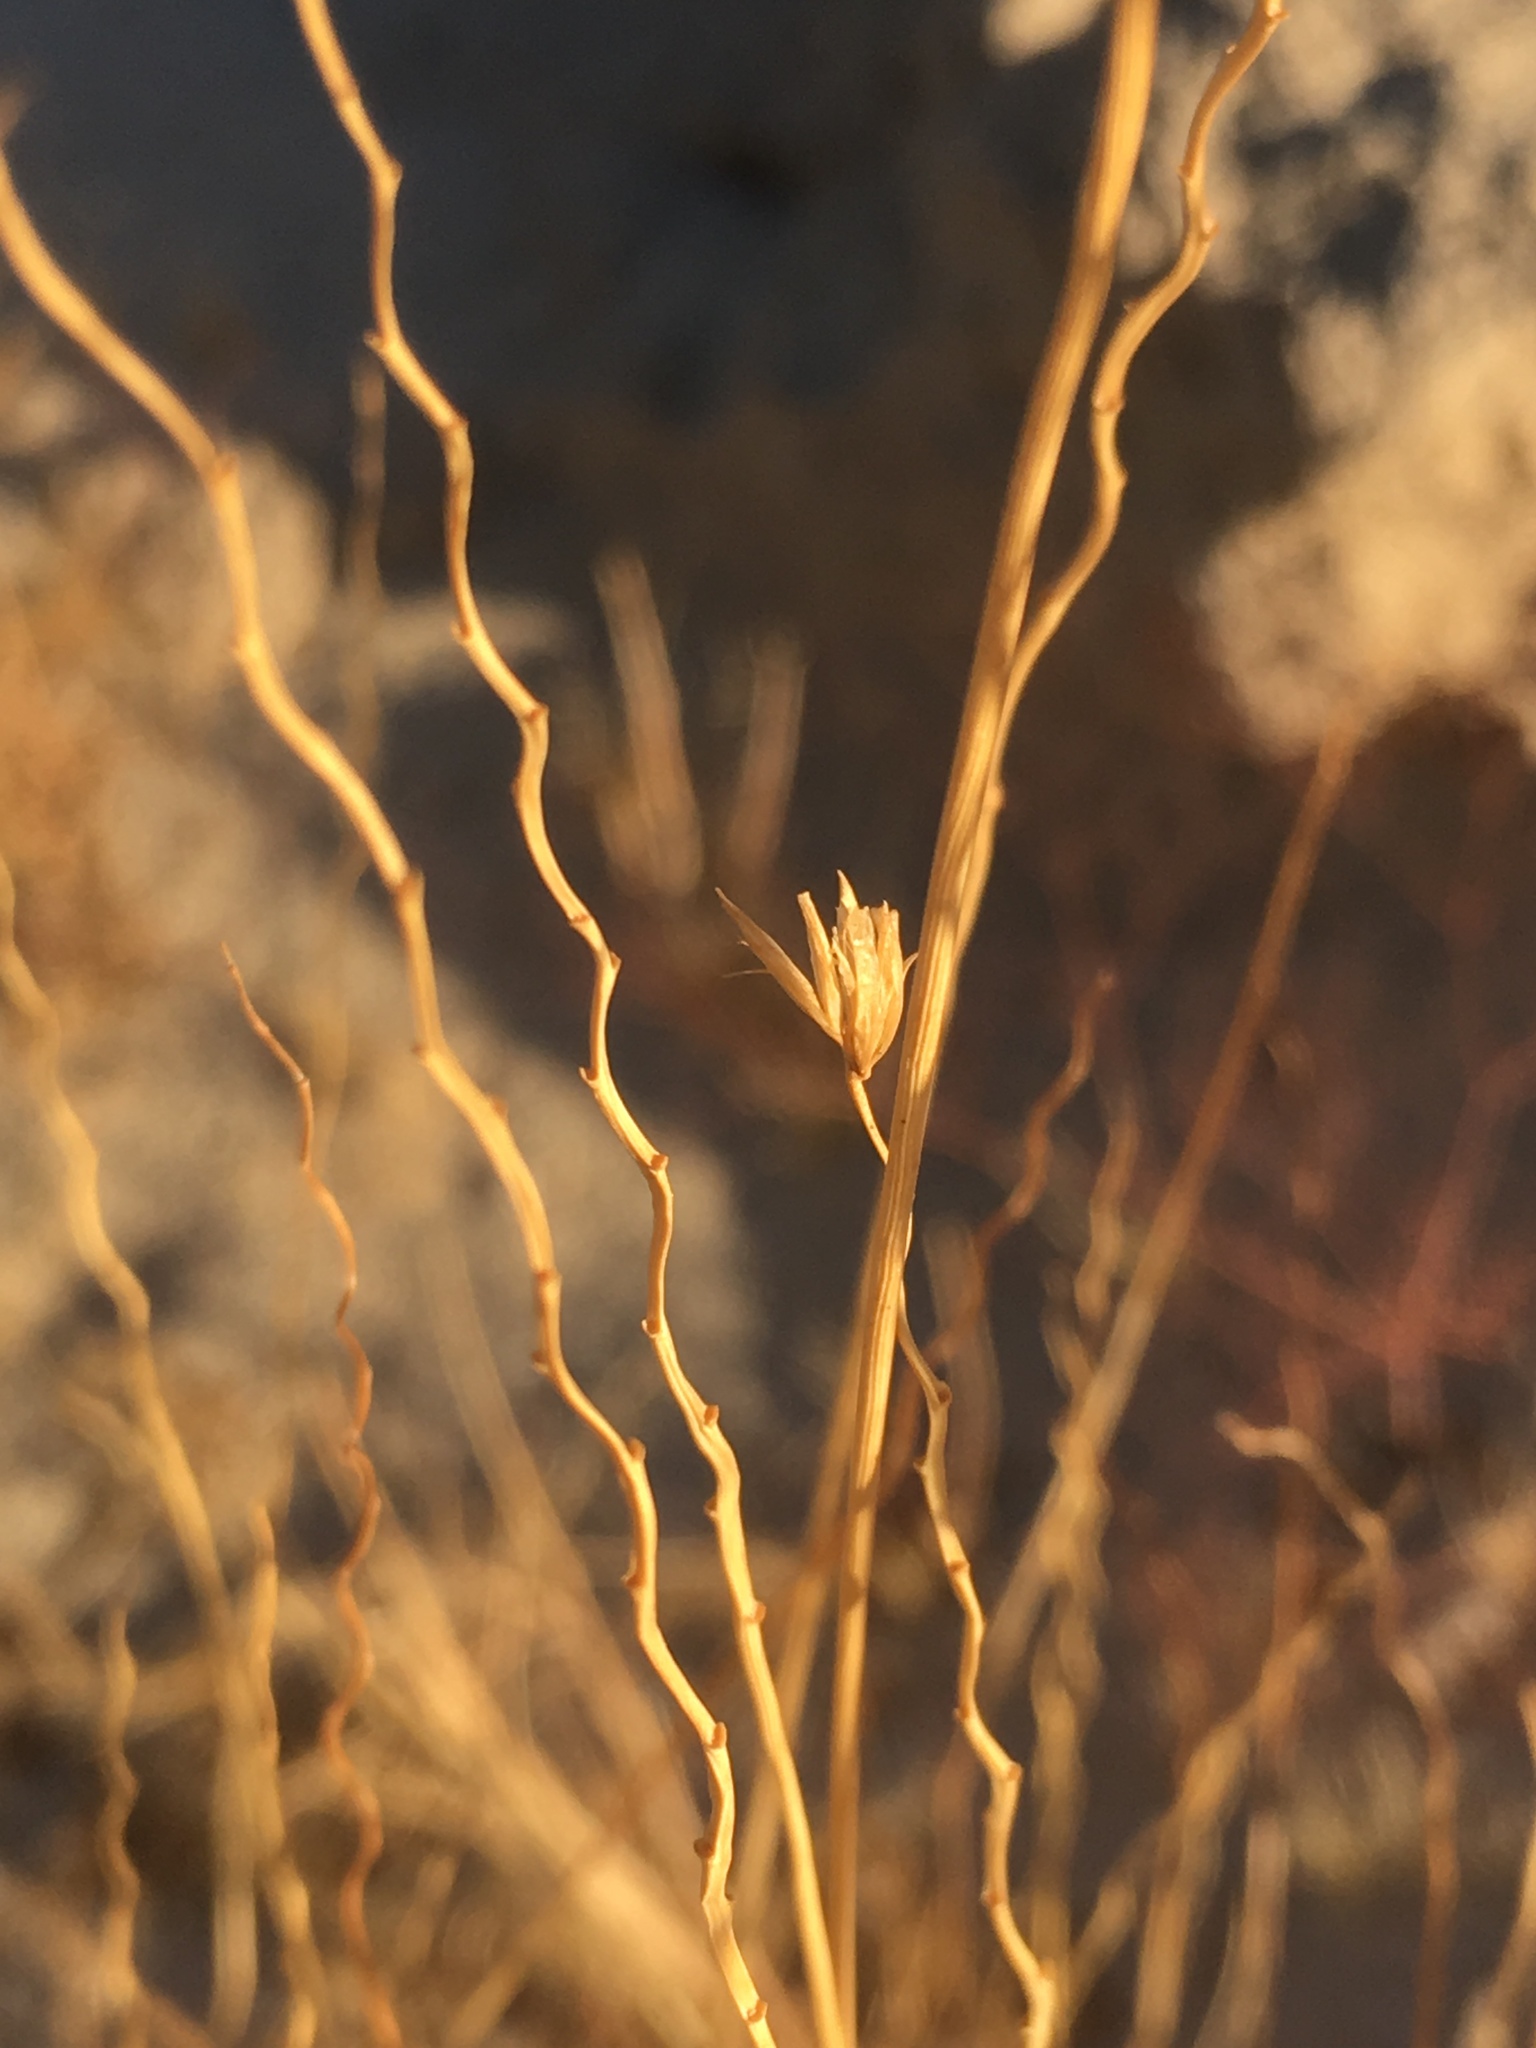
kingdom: Plantae
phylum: Tracheophyta
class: Liliopsida
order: Poales
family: Poaceae
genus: Hilaria
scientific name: Hilaria rigida
